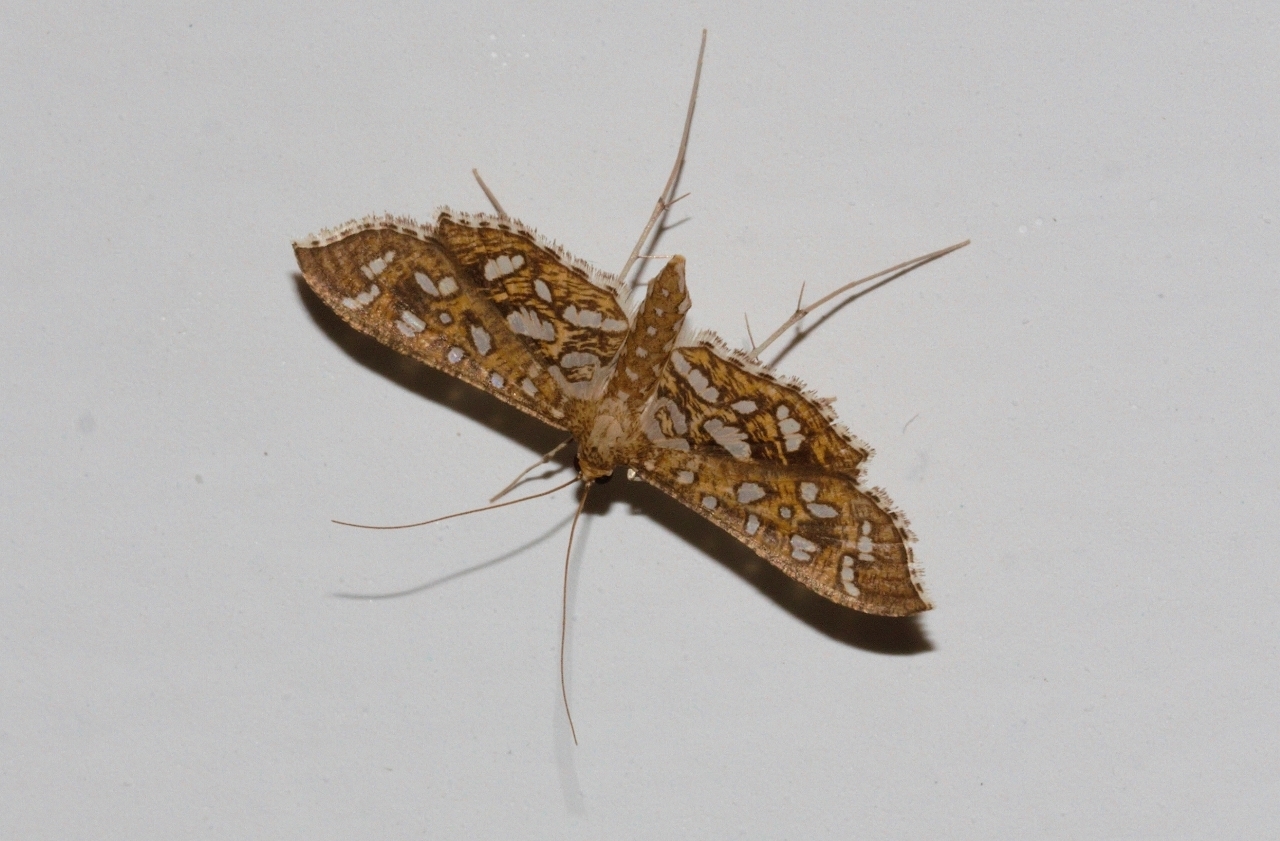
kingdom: Animalia
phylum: Arthropoda
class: Insecta
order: Lepidoptera
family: Crambidae
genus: Nausinoe
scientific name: Nausinoe geometralis
